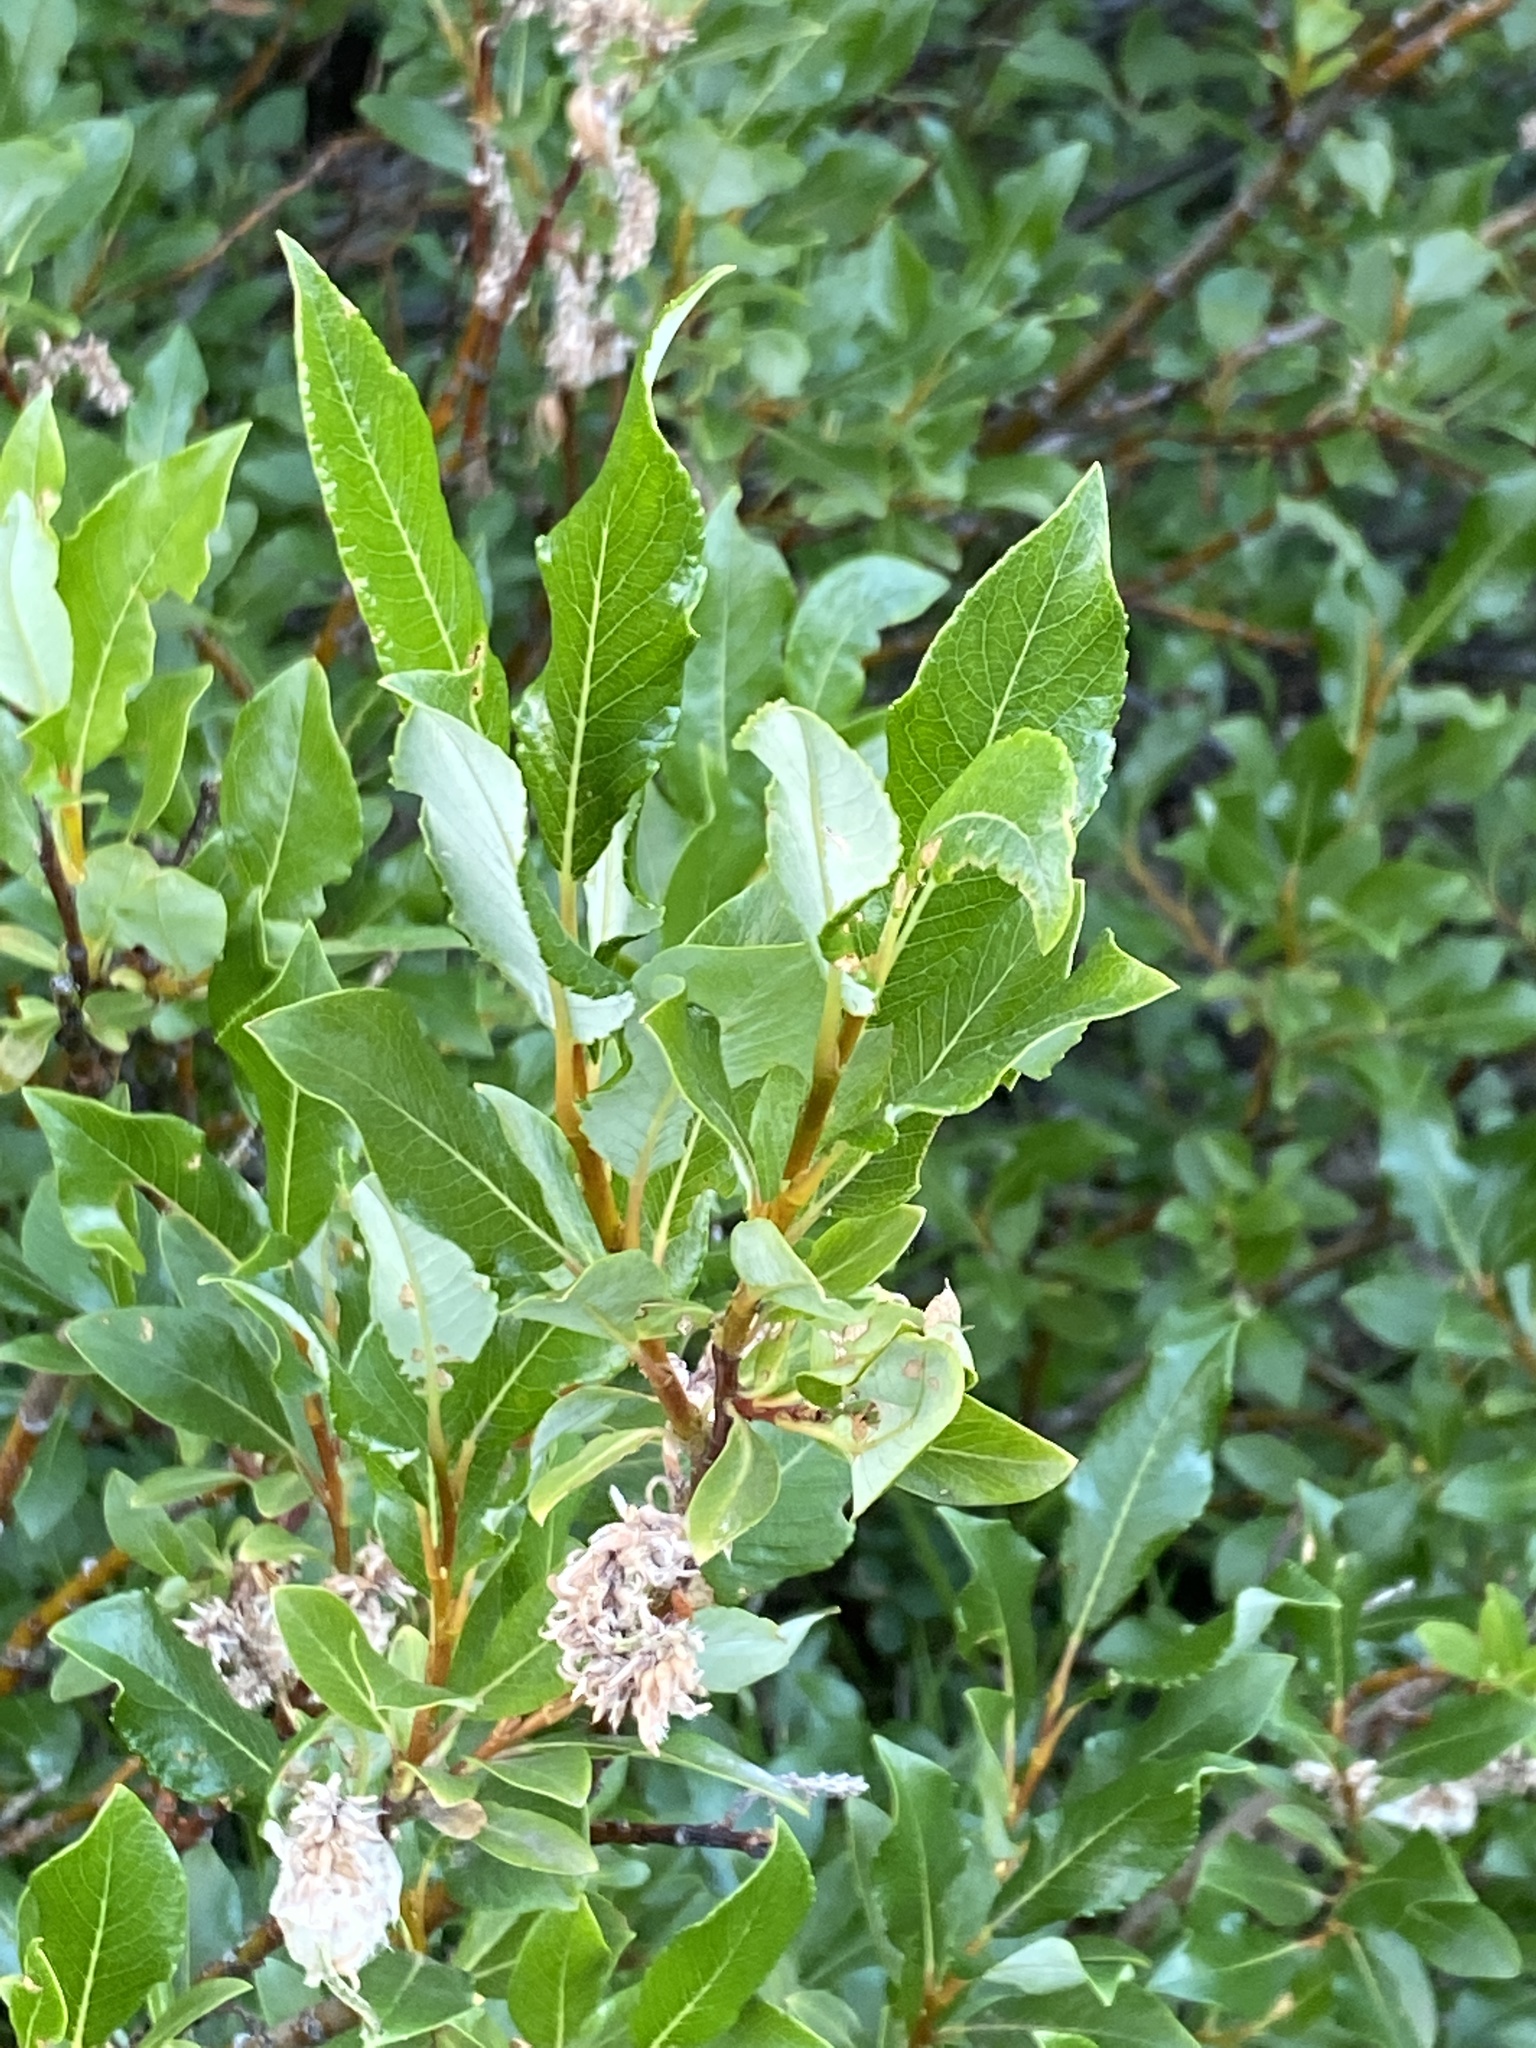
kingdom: Plantae
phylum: Tracheophyta
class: Magnoliopsida
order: Malpighiales
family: Salicaceae
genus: Salix
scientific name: Salix phylicifolia
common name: Tea-leaved willow
